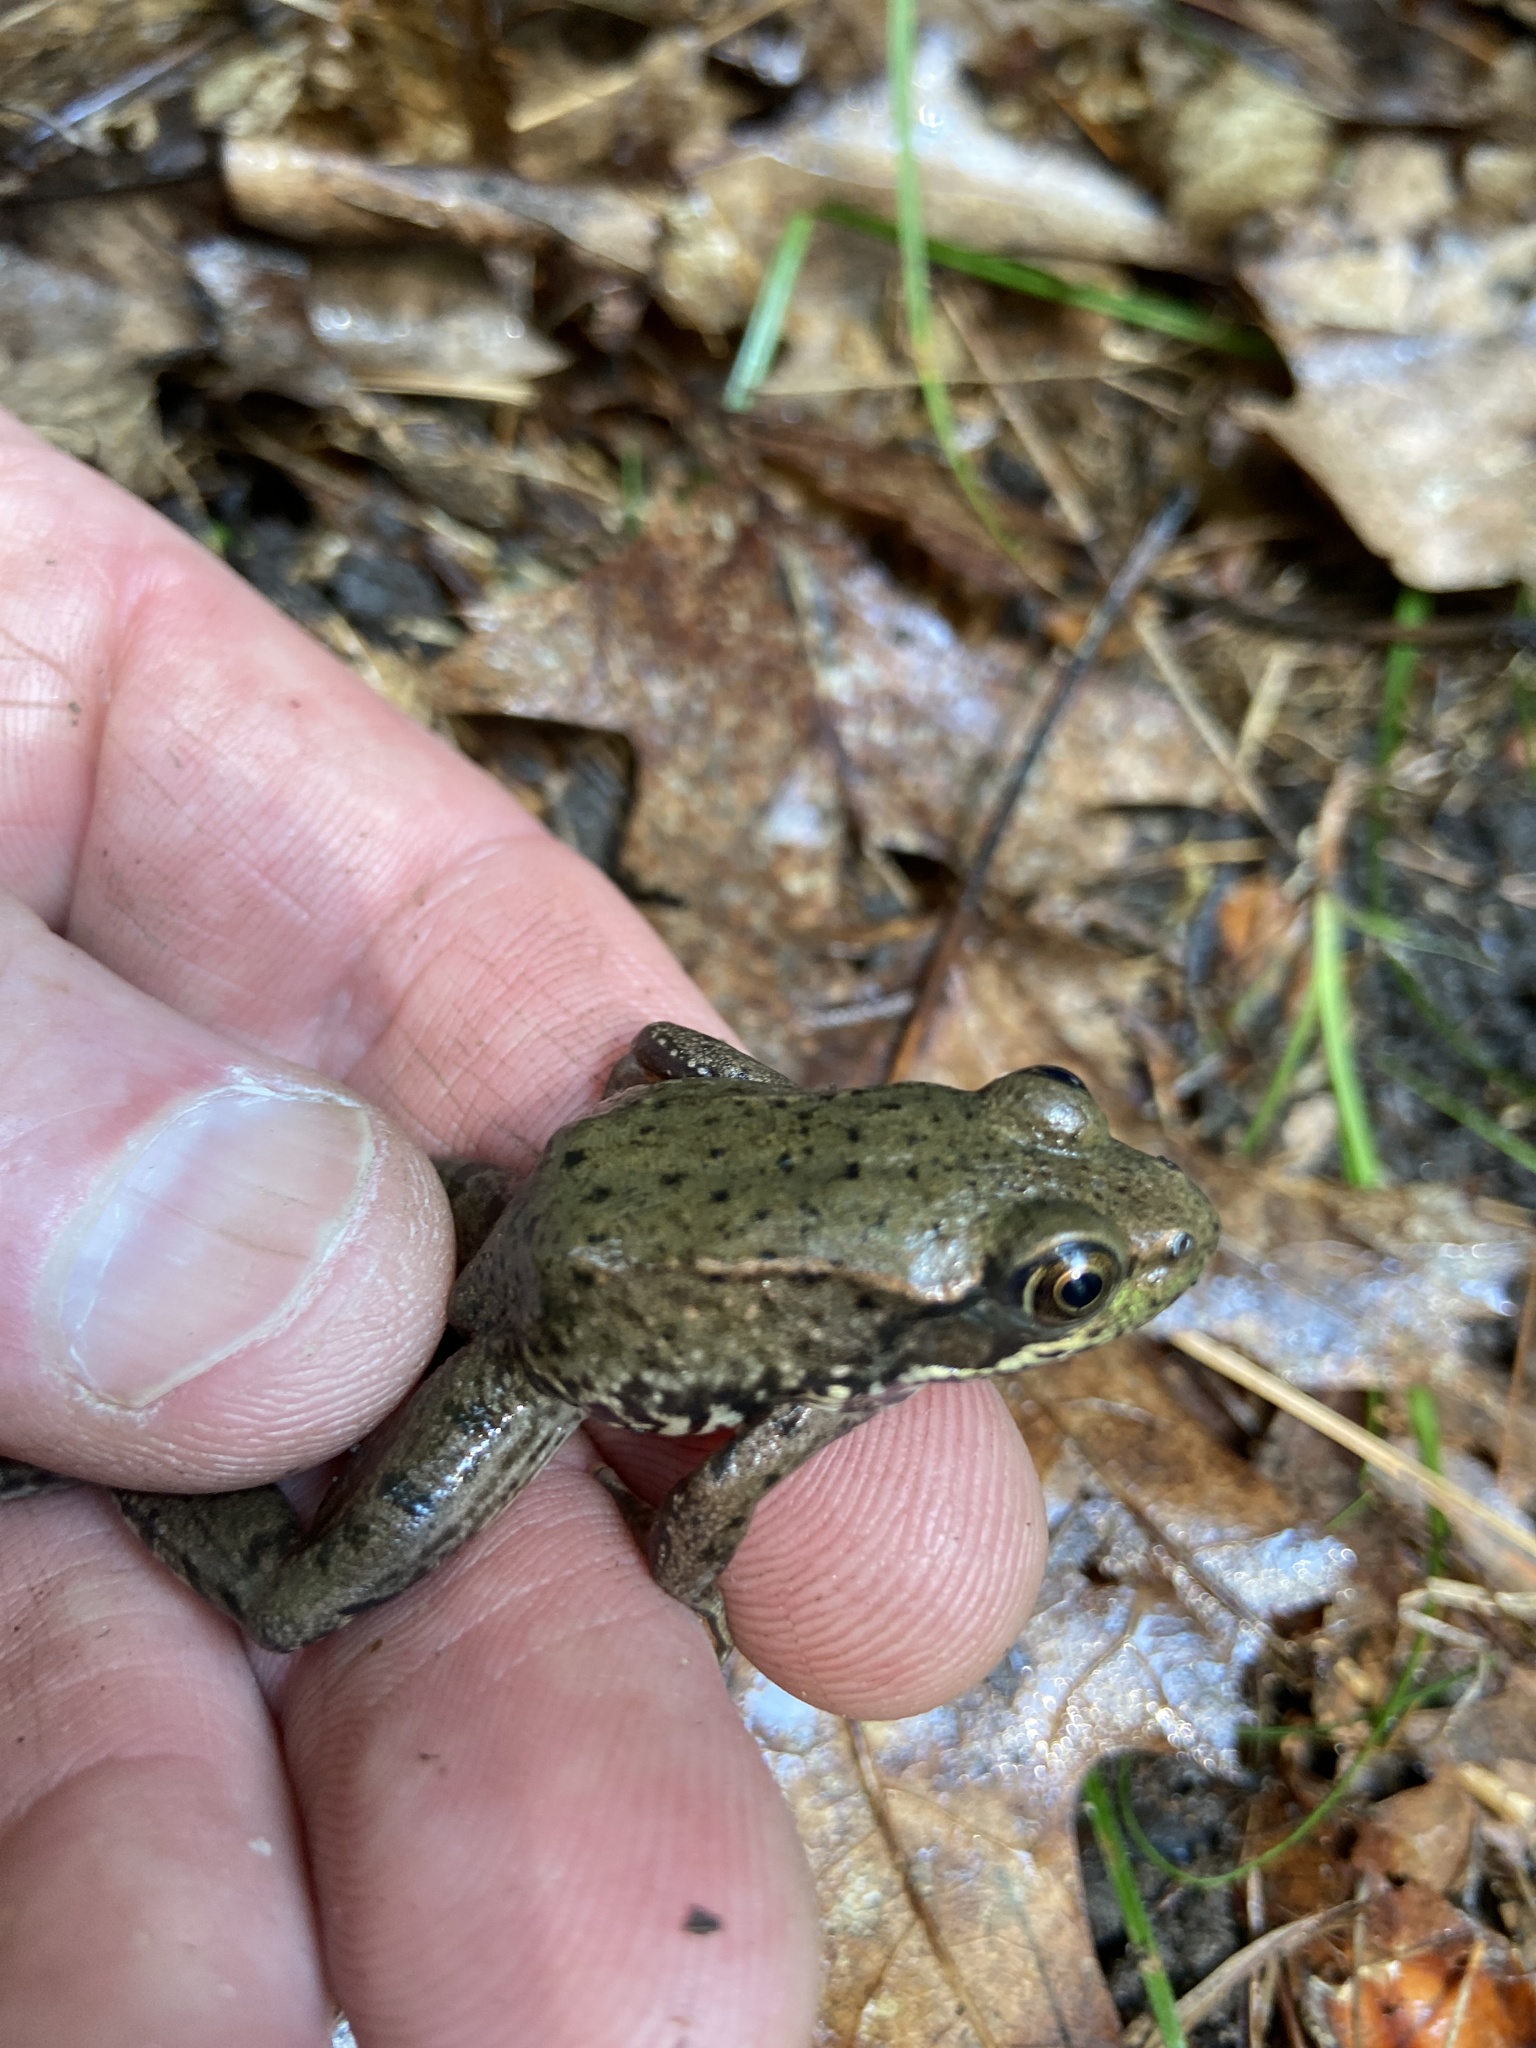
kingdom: Animalia
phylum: Chordata
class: Amphibia
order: Anura
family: Ranidae
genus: Lithobates
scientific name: Lithobates clamitans
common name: Green frog
